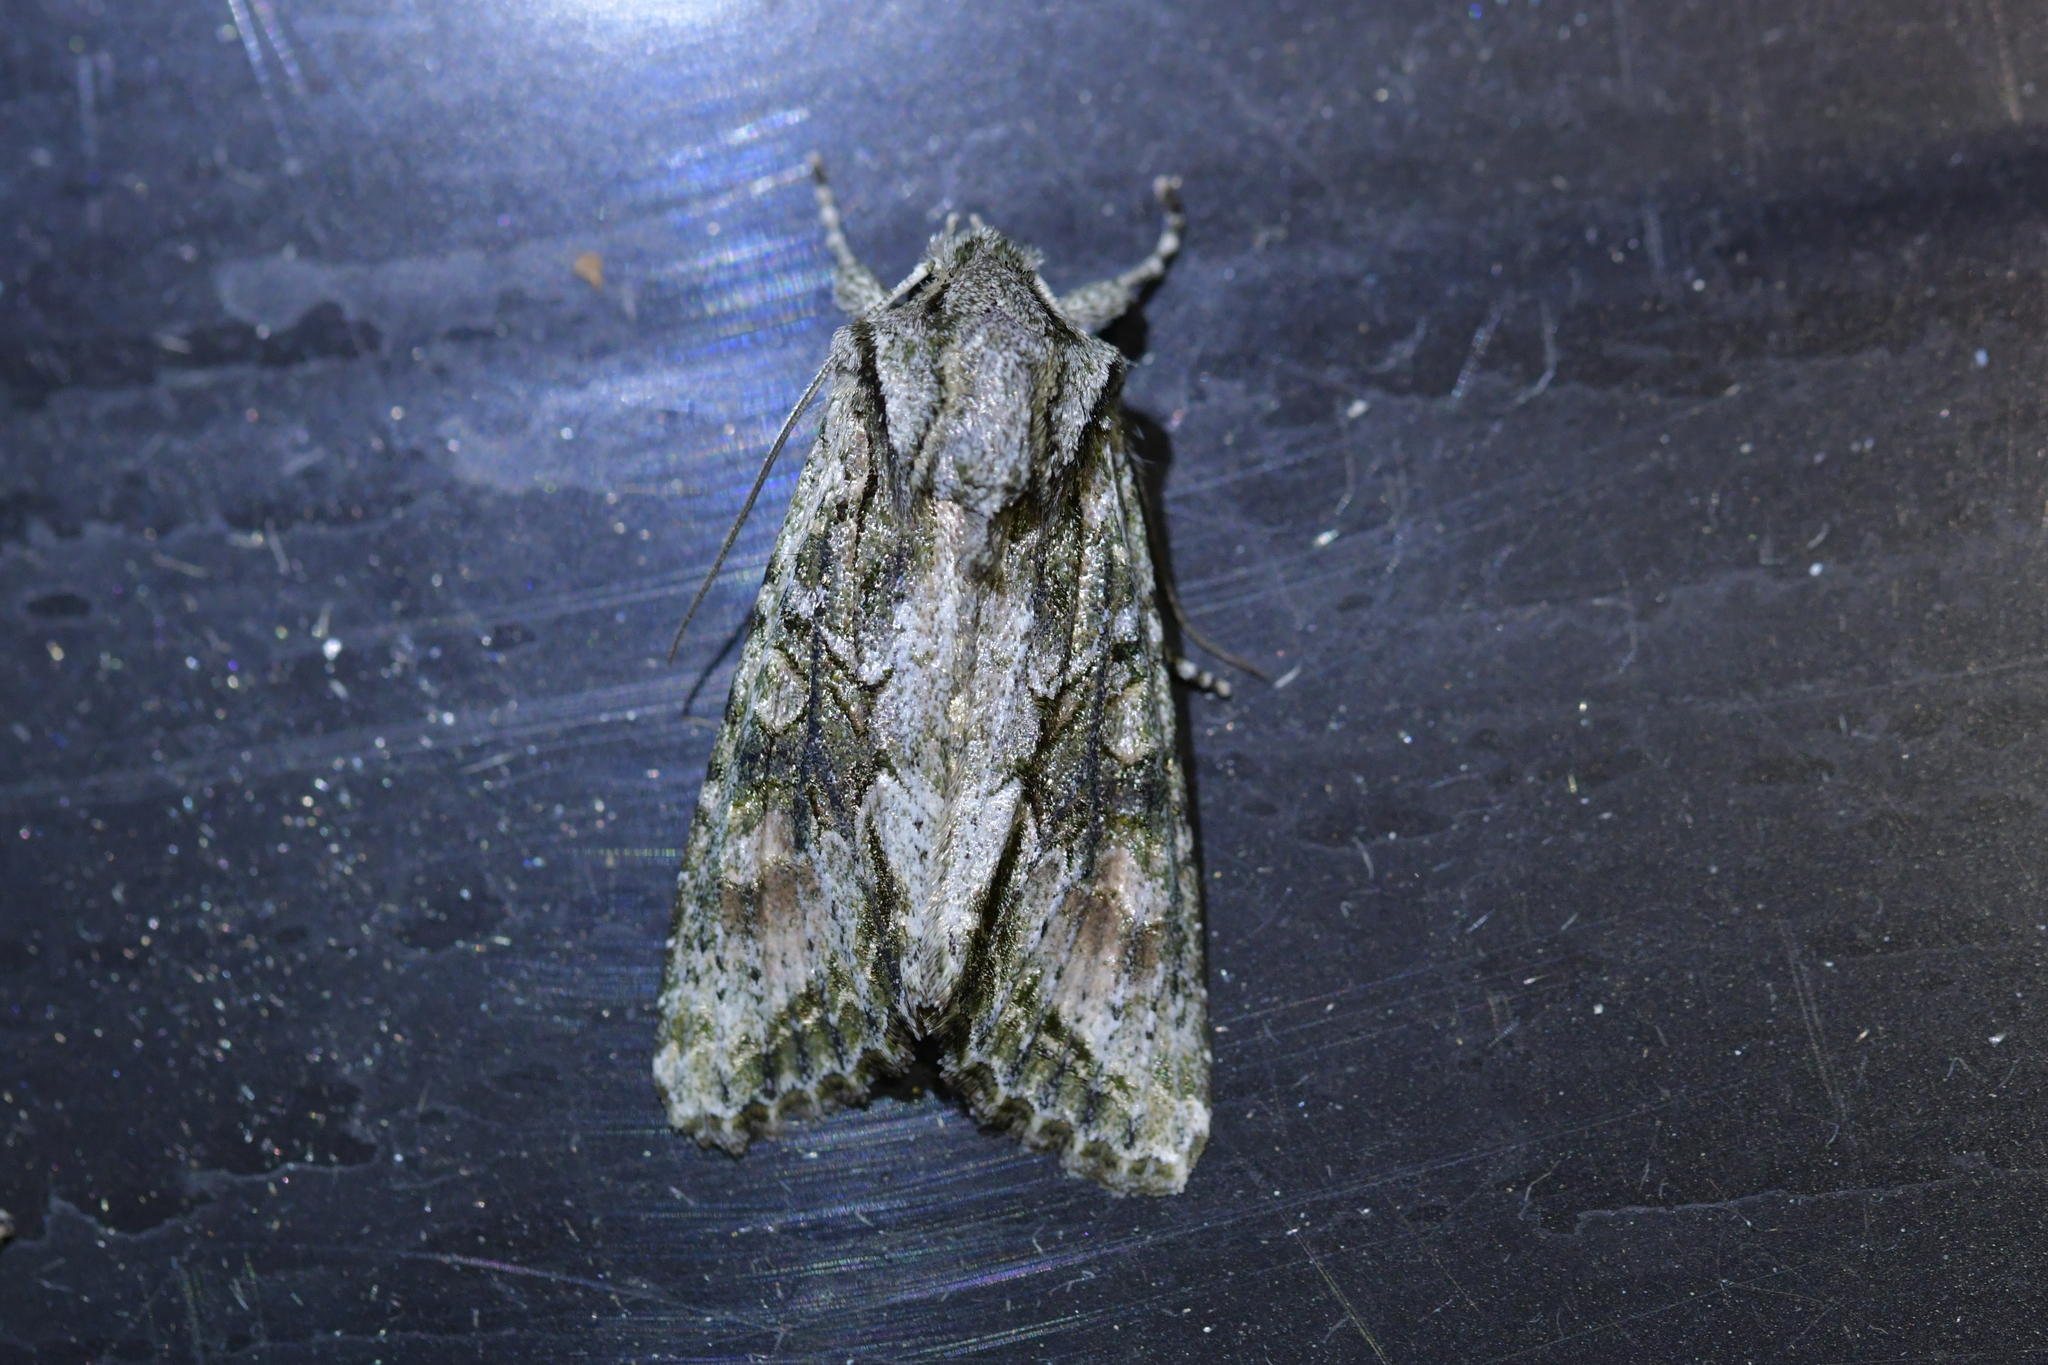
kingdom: Animalia
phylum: Arthropoda
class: Insecta
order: Lepidoptera
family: Noctuidae
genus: Ichneutica
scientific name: Ichneutica mutans
